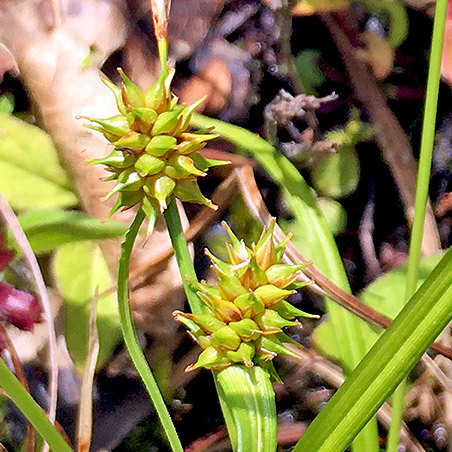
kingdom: Plantae
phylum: Tracheophyta
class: Liliopsida
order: Poales
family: Cyperaceae
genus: Carex
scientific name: Carex flava
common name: Large yellow-sedge
